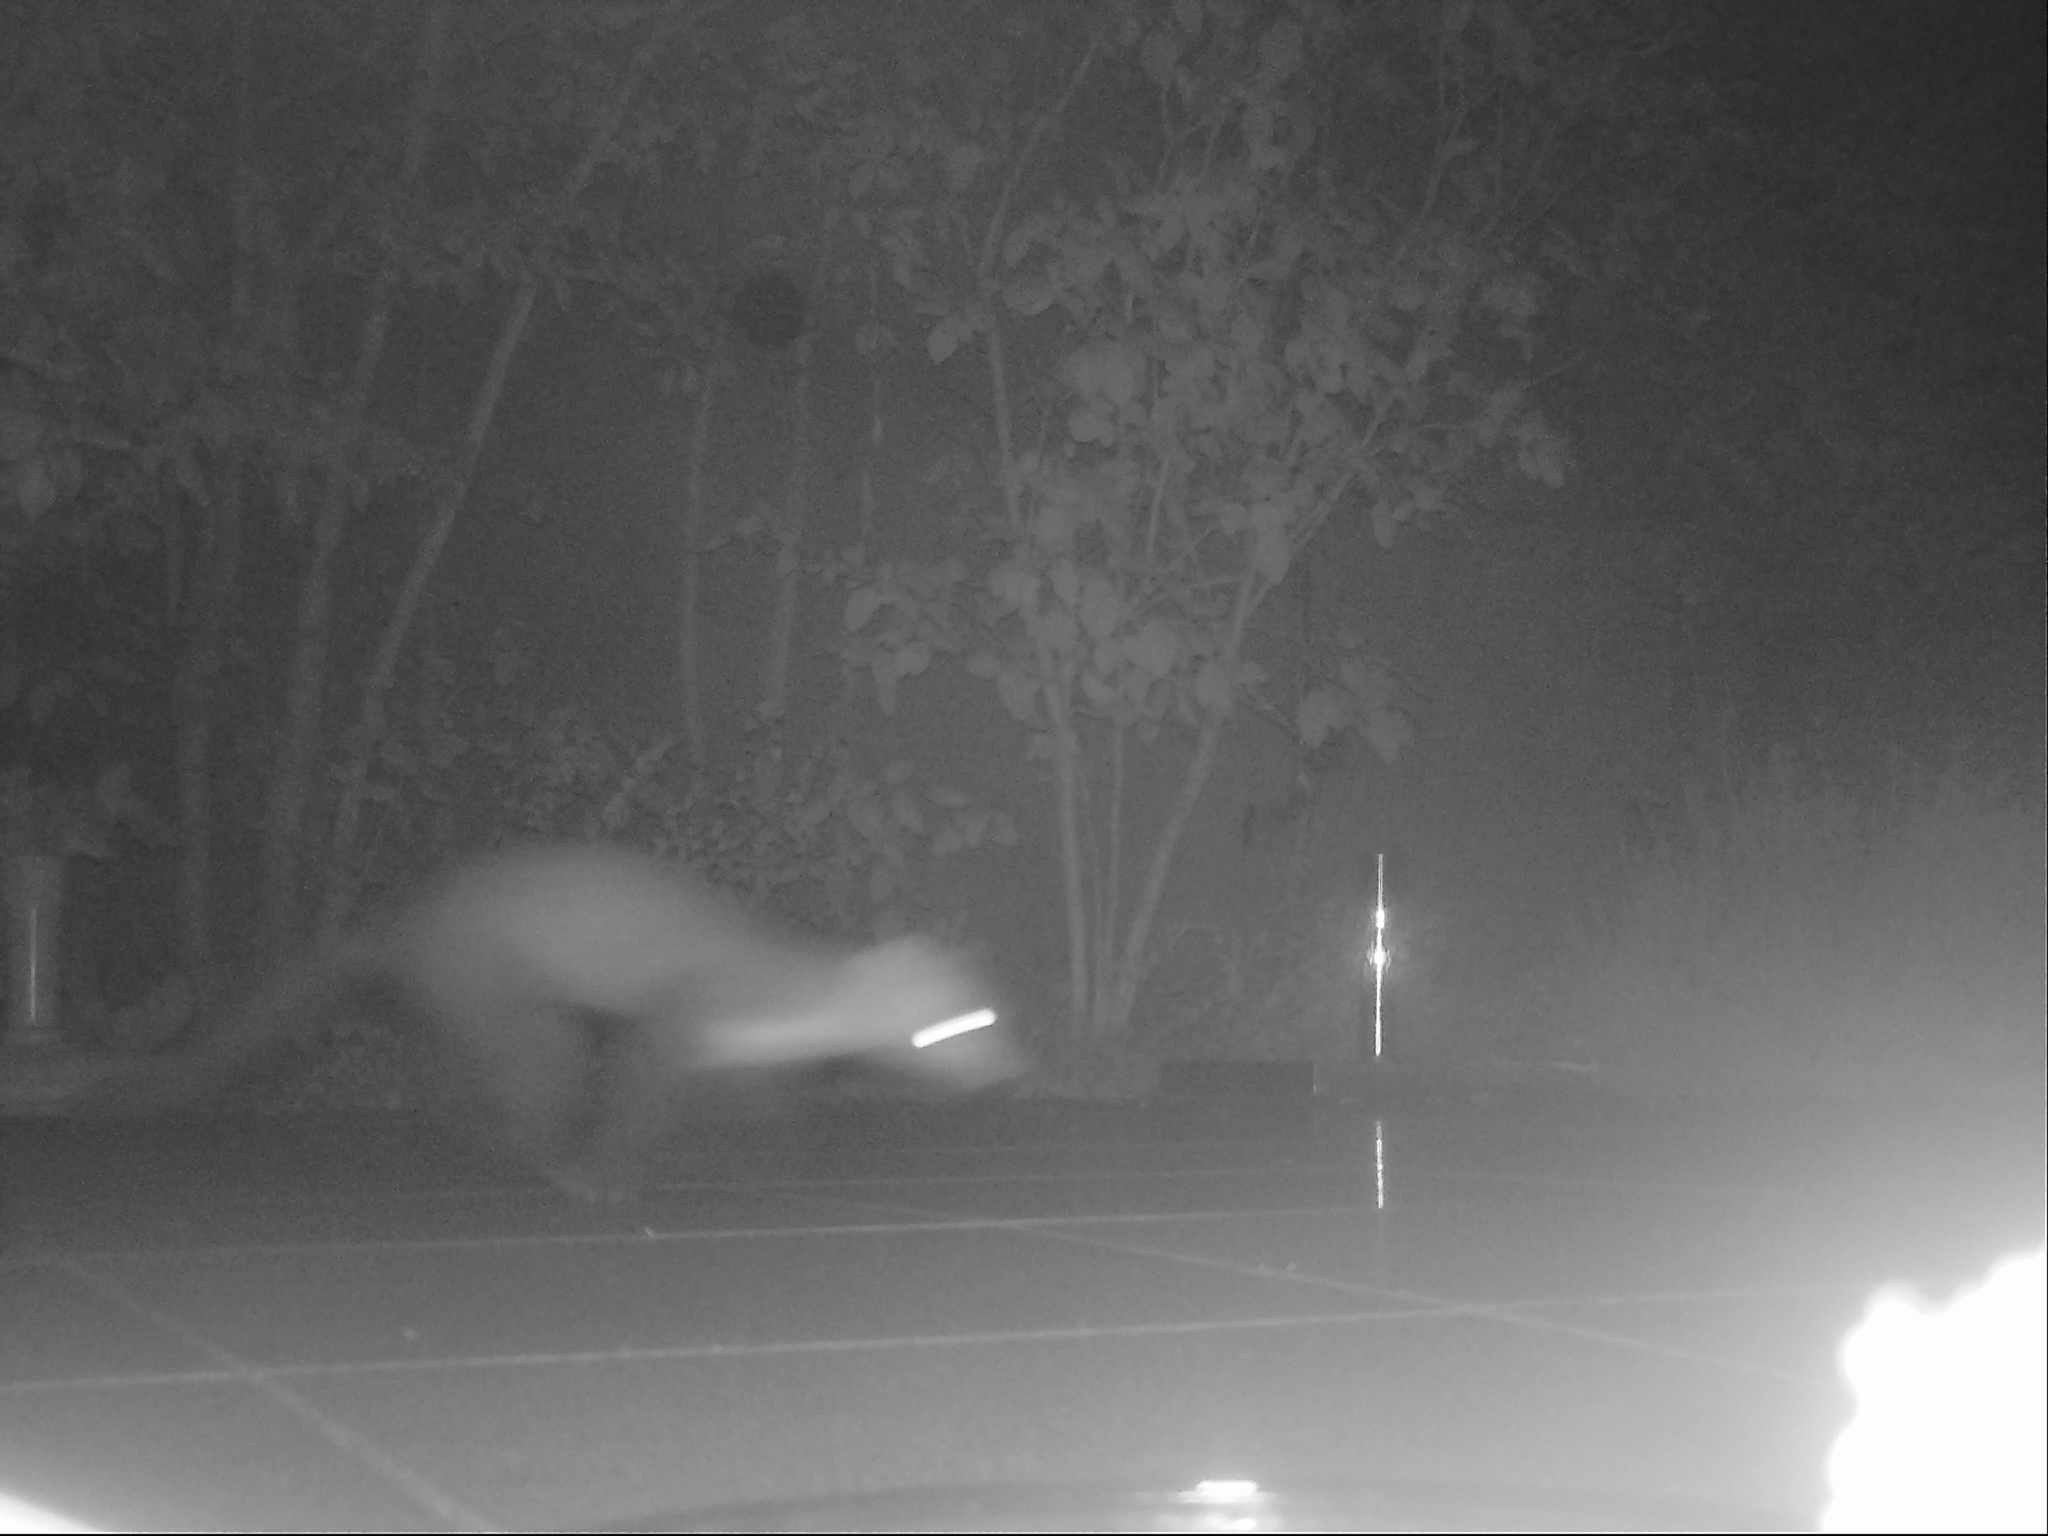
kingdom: Animalia
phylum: Chordata
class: Mammalia
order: Carnivora
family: Mustelidae
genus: Martes
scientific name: Martes foina
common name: Beech marten
